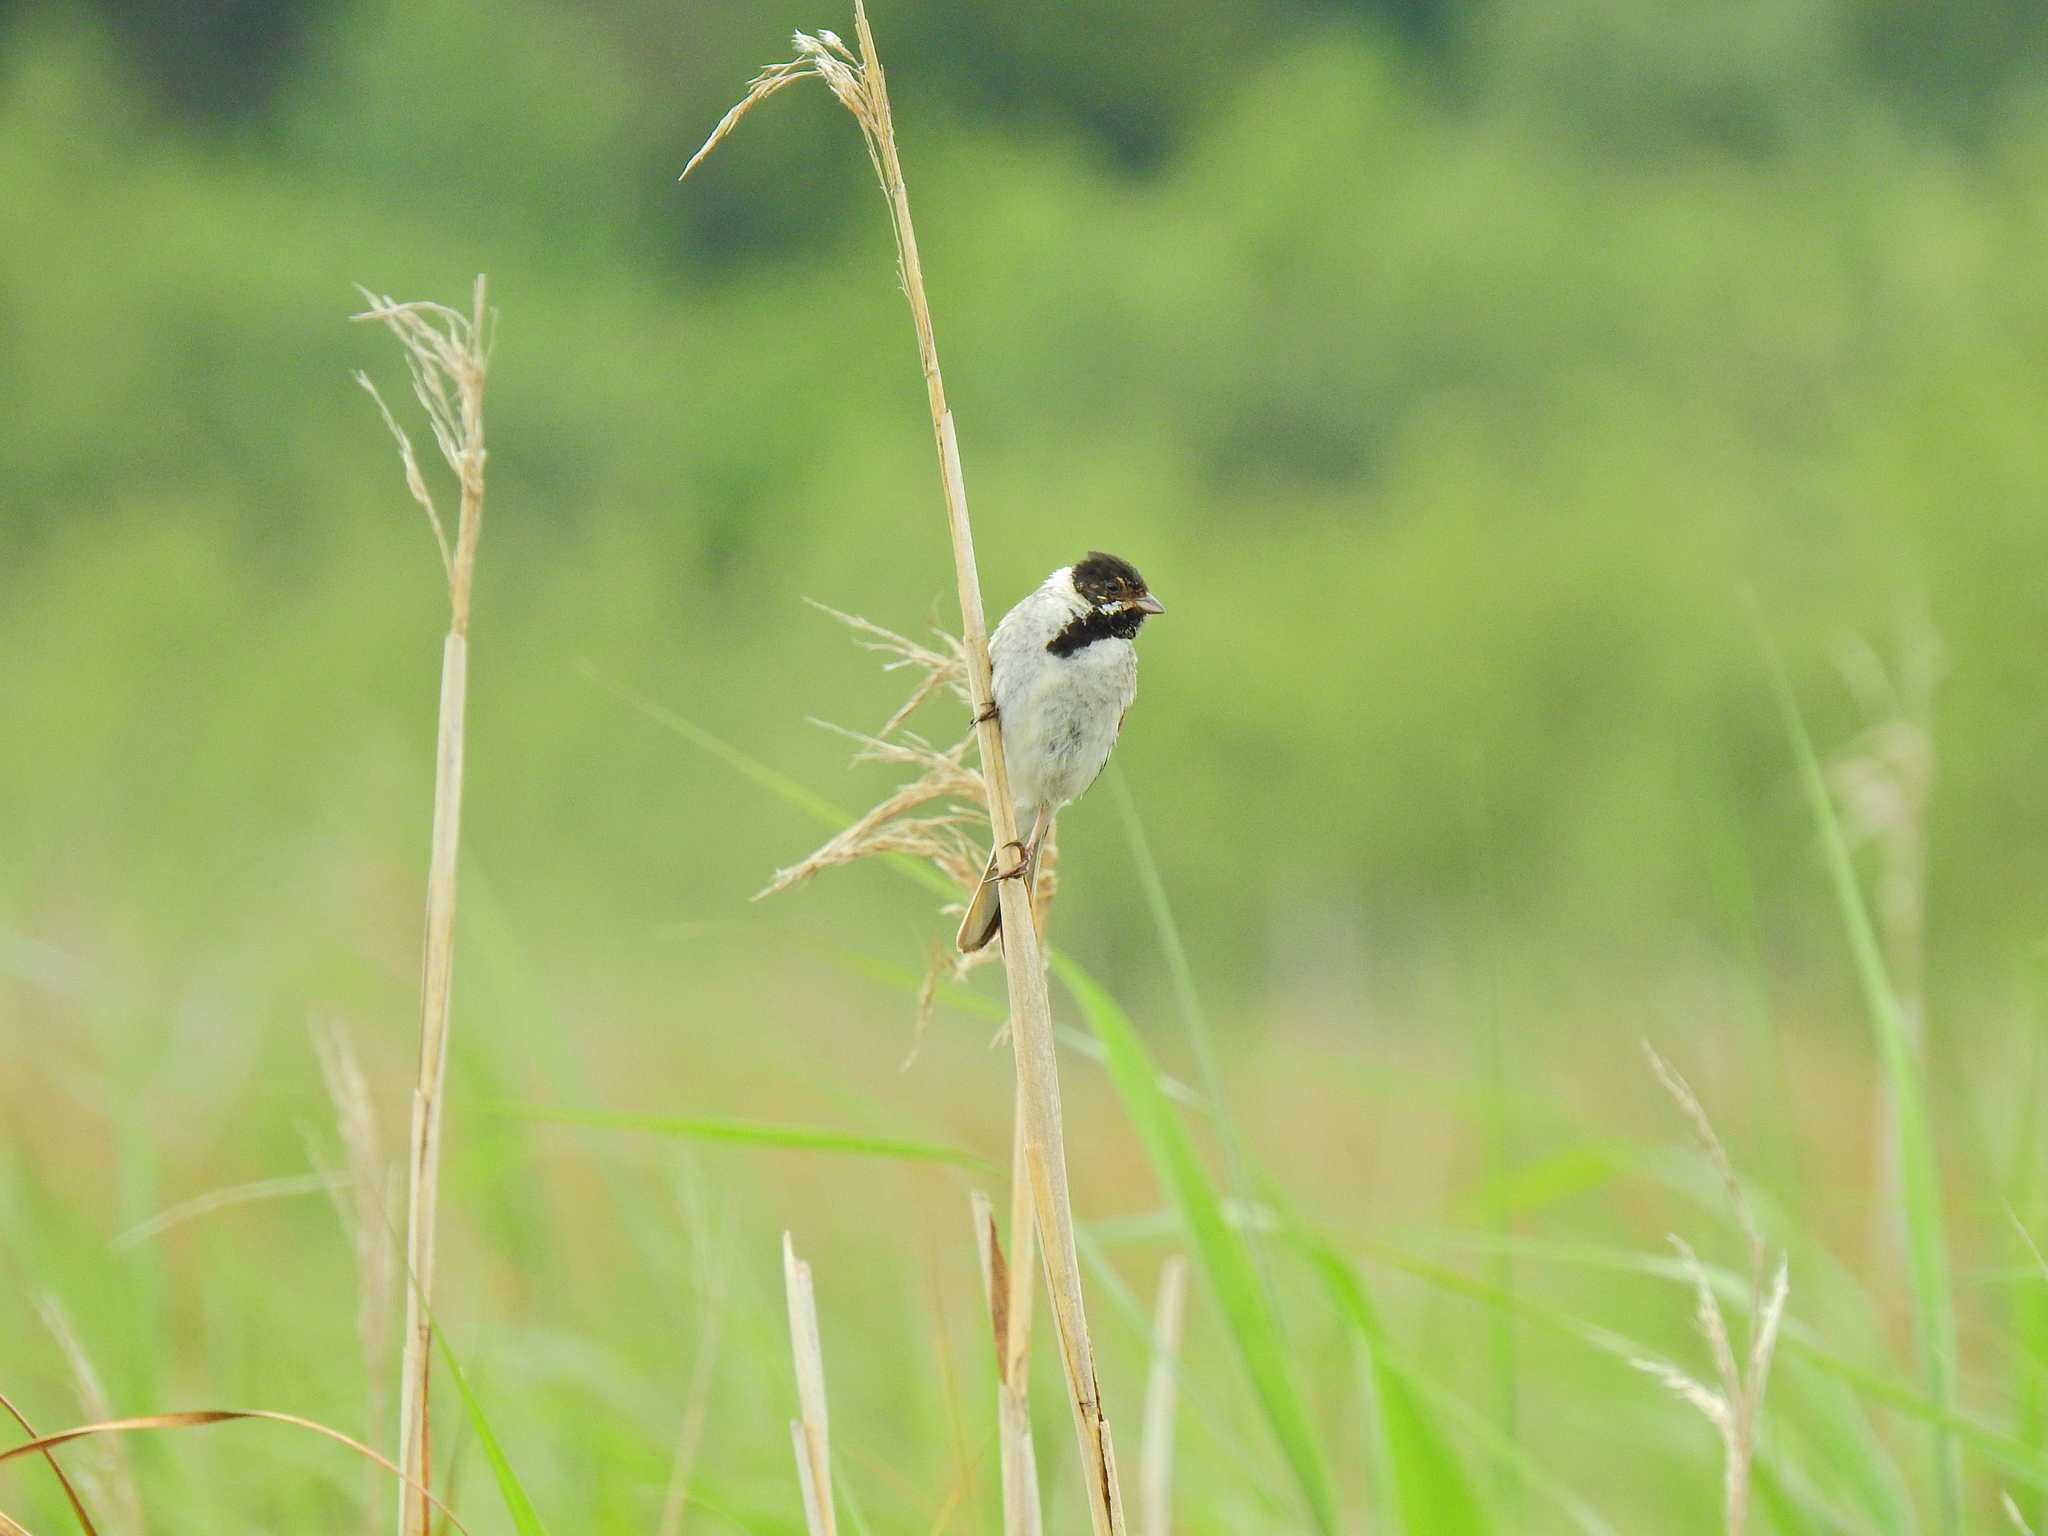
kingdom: Animalia
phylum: Chordata
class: Aves
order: Passeriformes
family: Emberizidae
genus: Emberiza
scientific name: Emberiza schoeniclus
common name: Reed bunting
